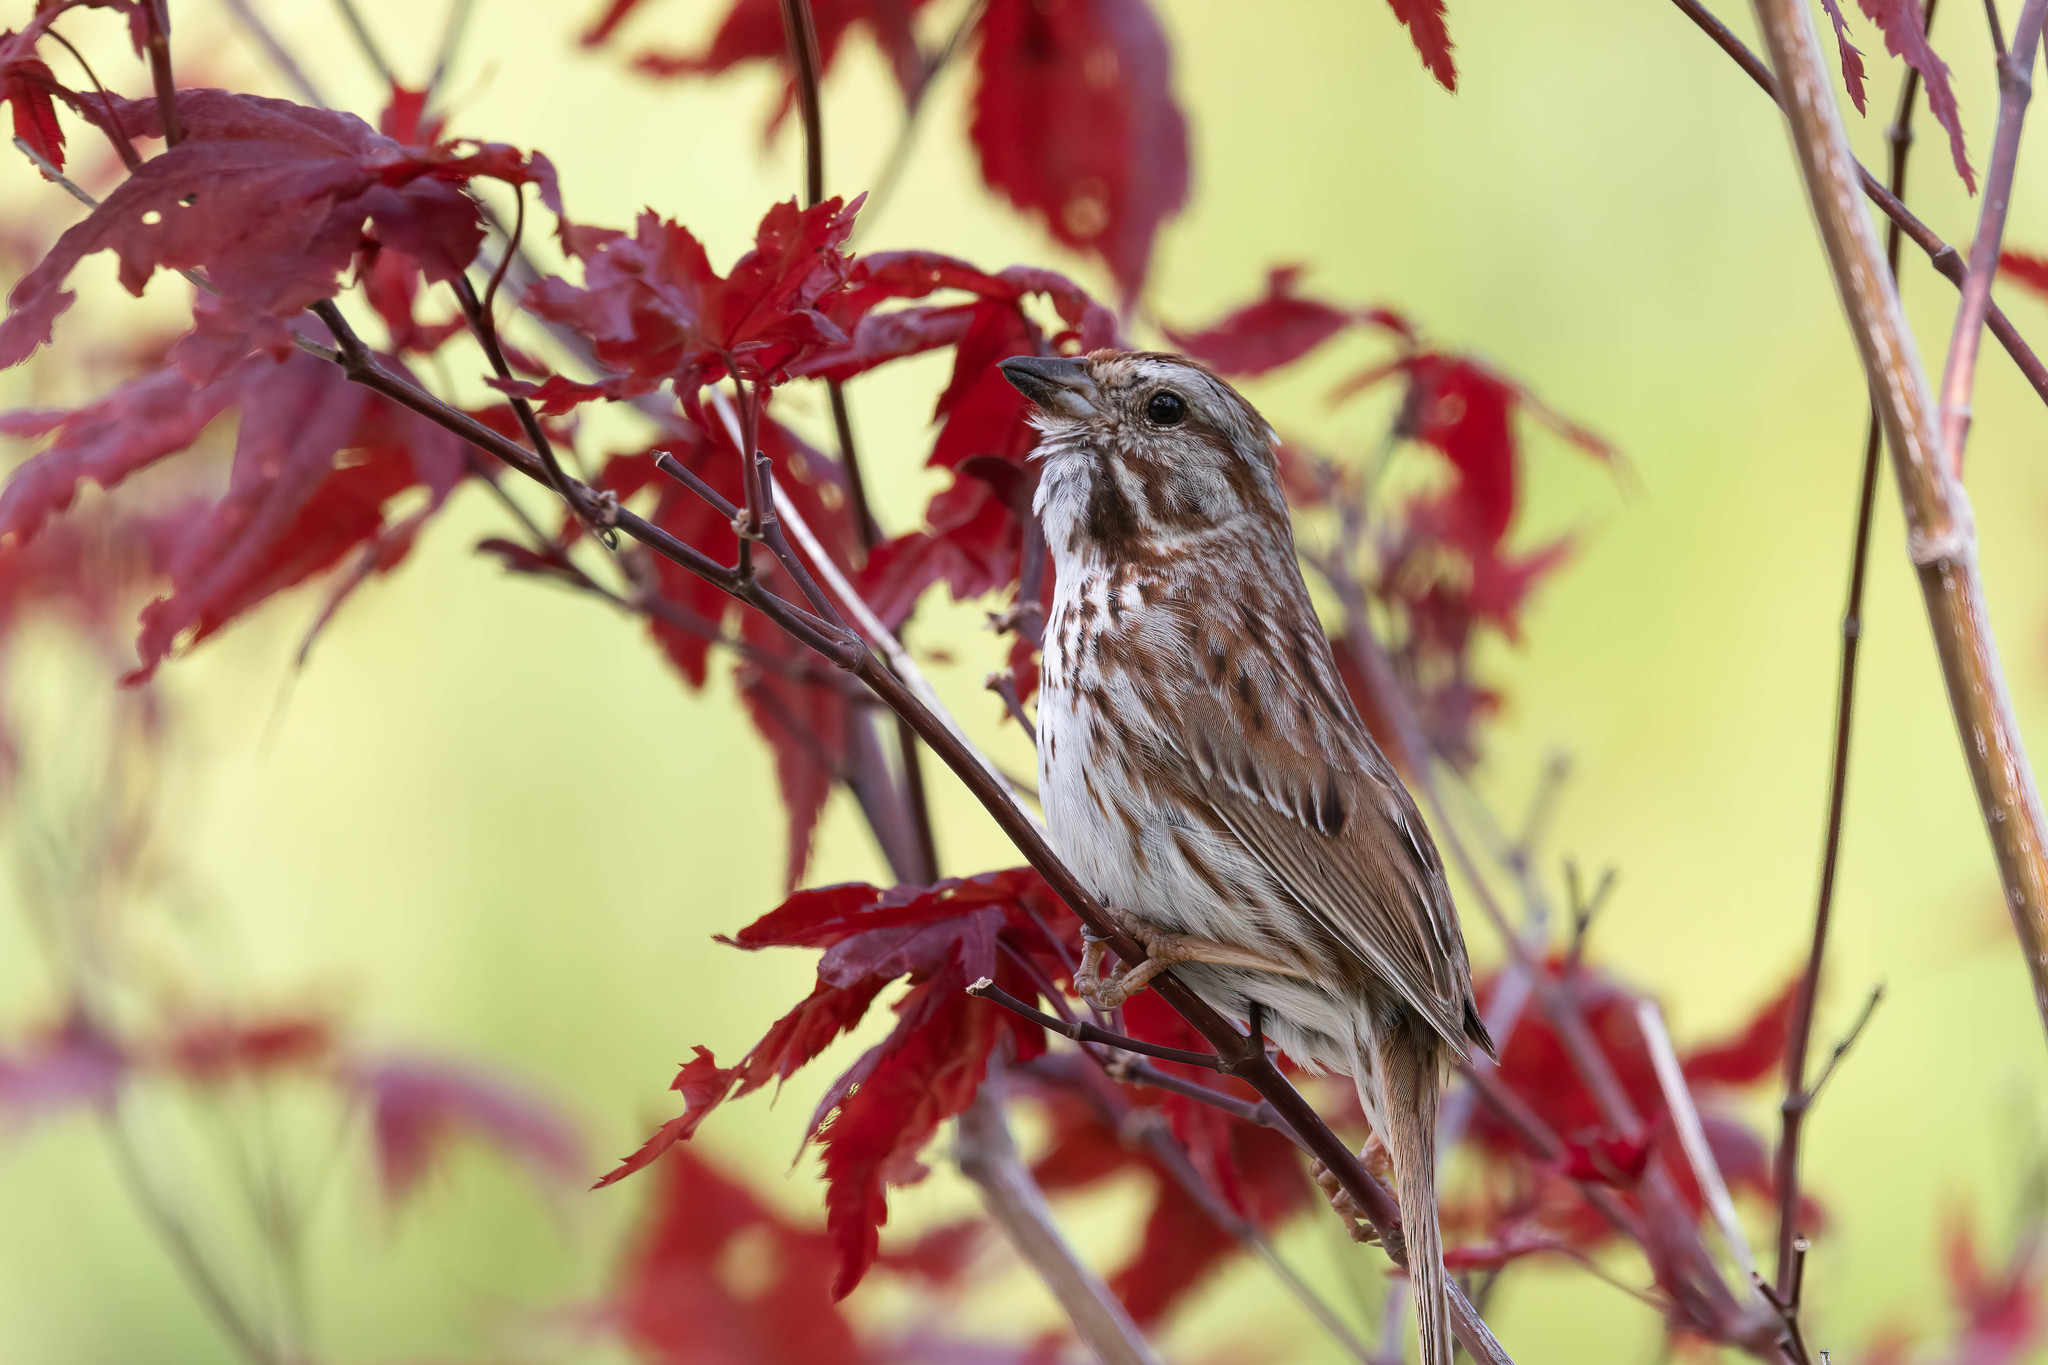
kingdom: Animalia
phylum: Chordata
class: Aves
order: Passeriformes
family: Passerellidae
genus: Melospiza
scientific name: Melospiza melodia
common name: Song sparrow
